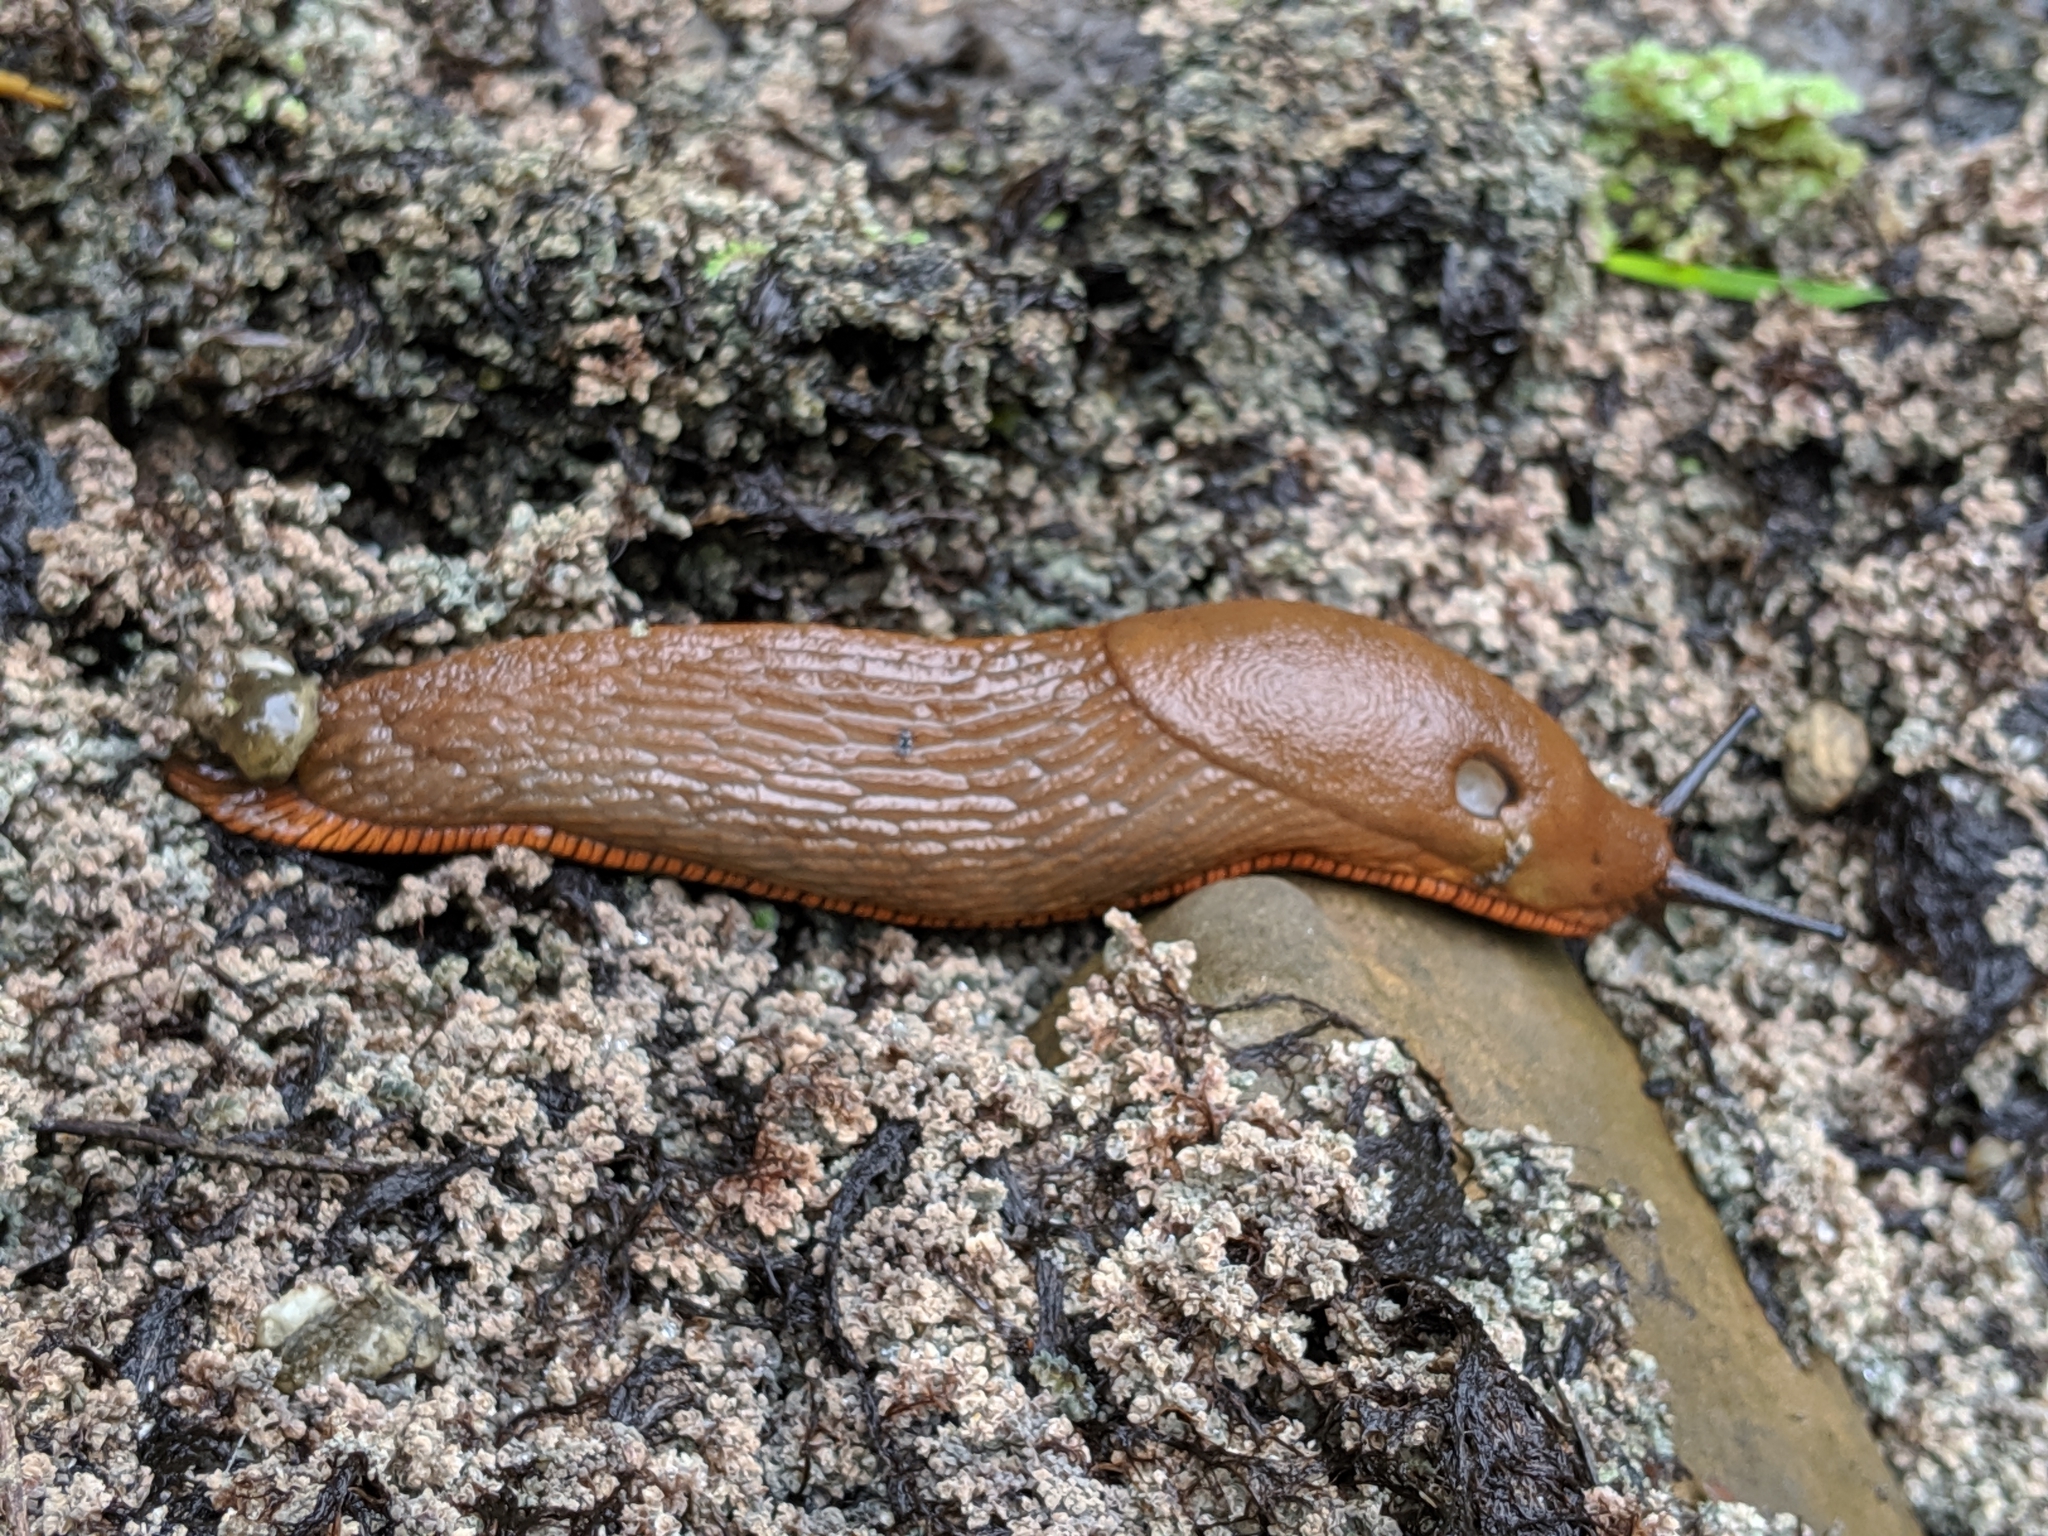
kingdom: Animalia
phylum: Mollusca
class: Gastropoda
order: Stylommatophora
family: Arionidae
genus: Arion
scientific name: Arion rufus
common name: Chocolate arion
